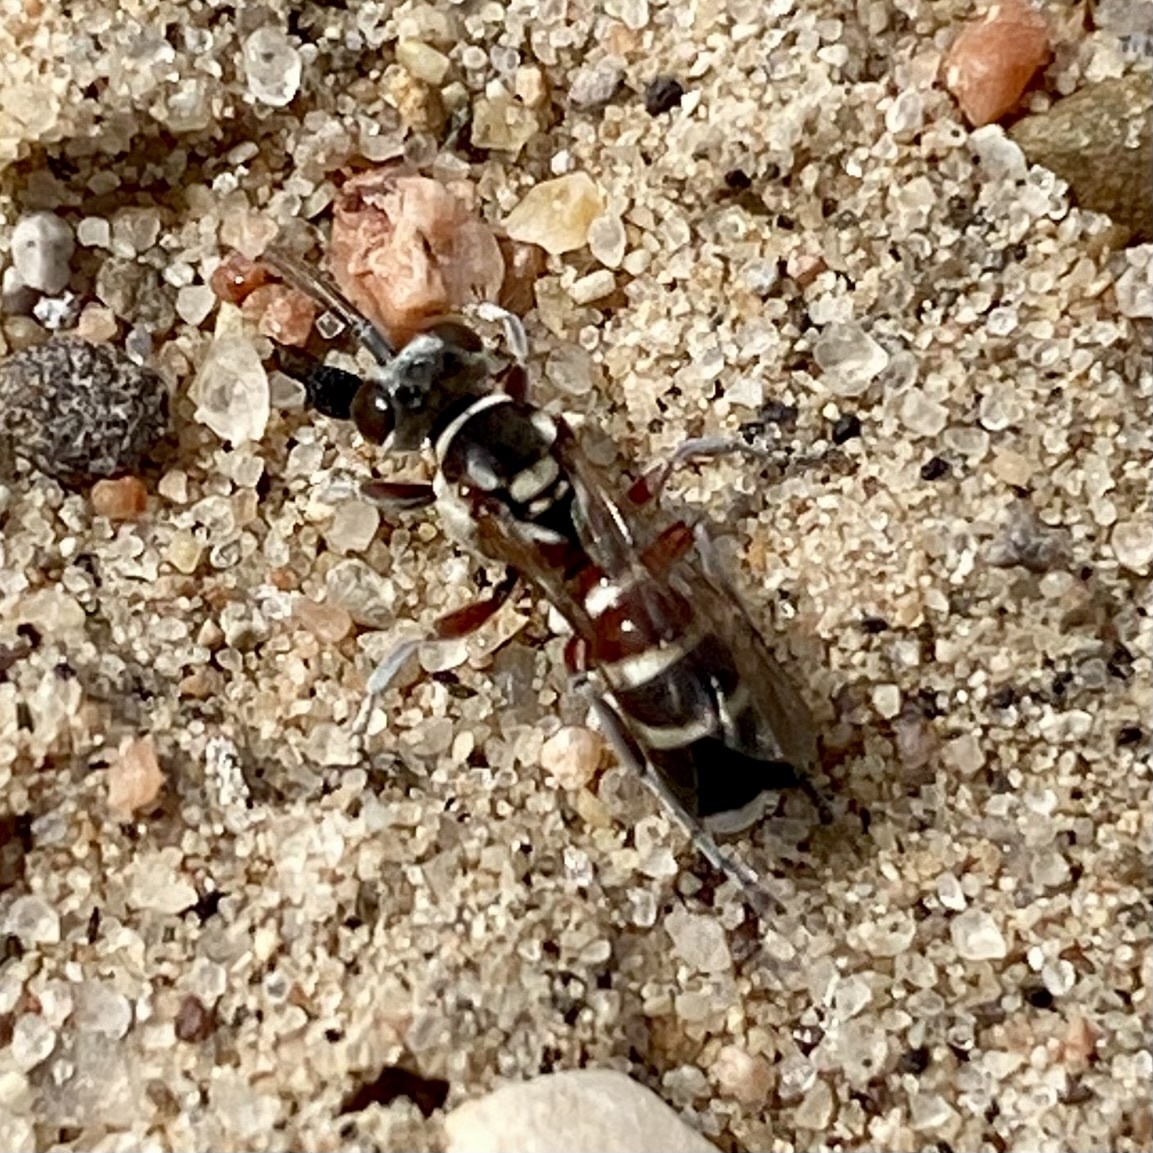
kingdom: Animalia
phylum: Arthropoda
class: Insecta
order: Hymenoptera
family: Crabronidae
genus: Hapalomellinus
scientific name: Hapalomellinus albitomentosus
